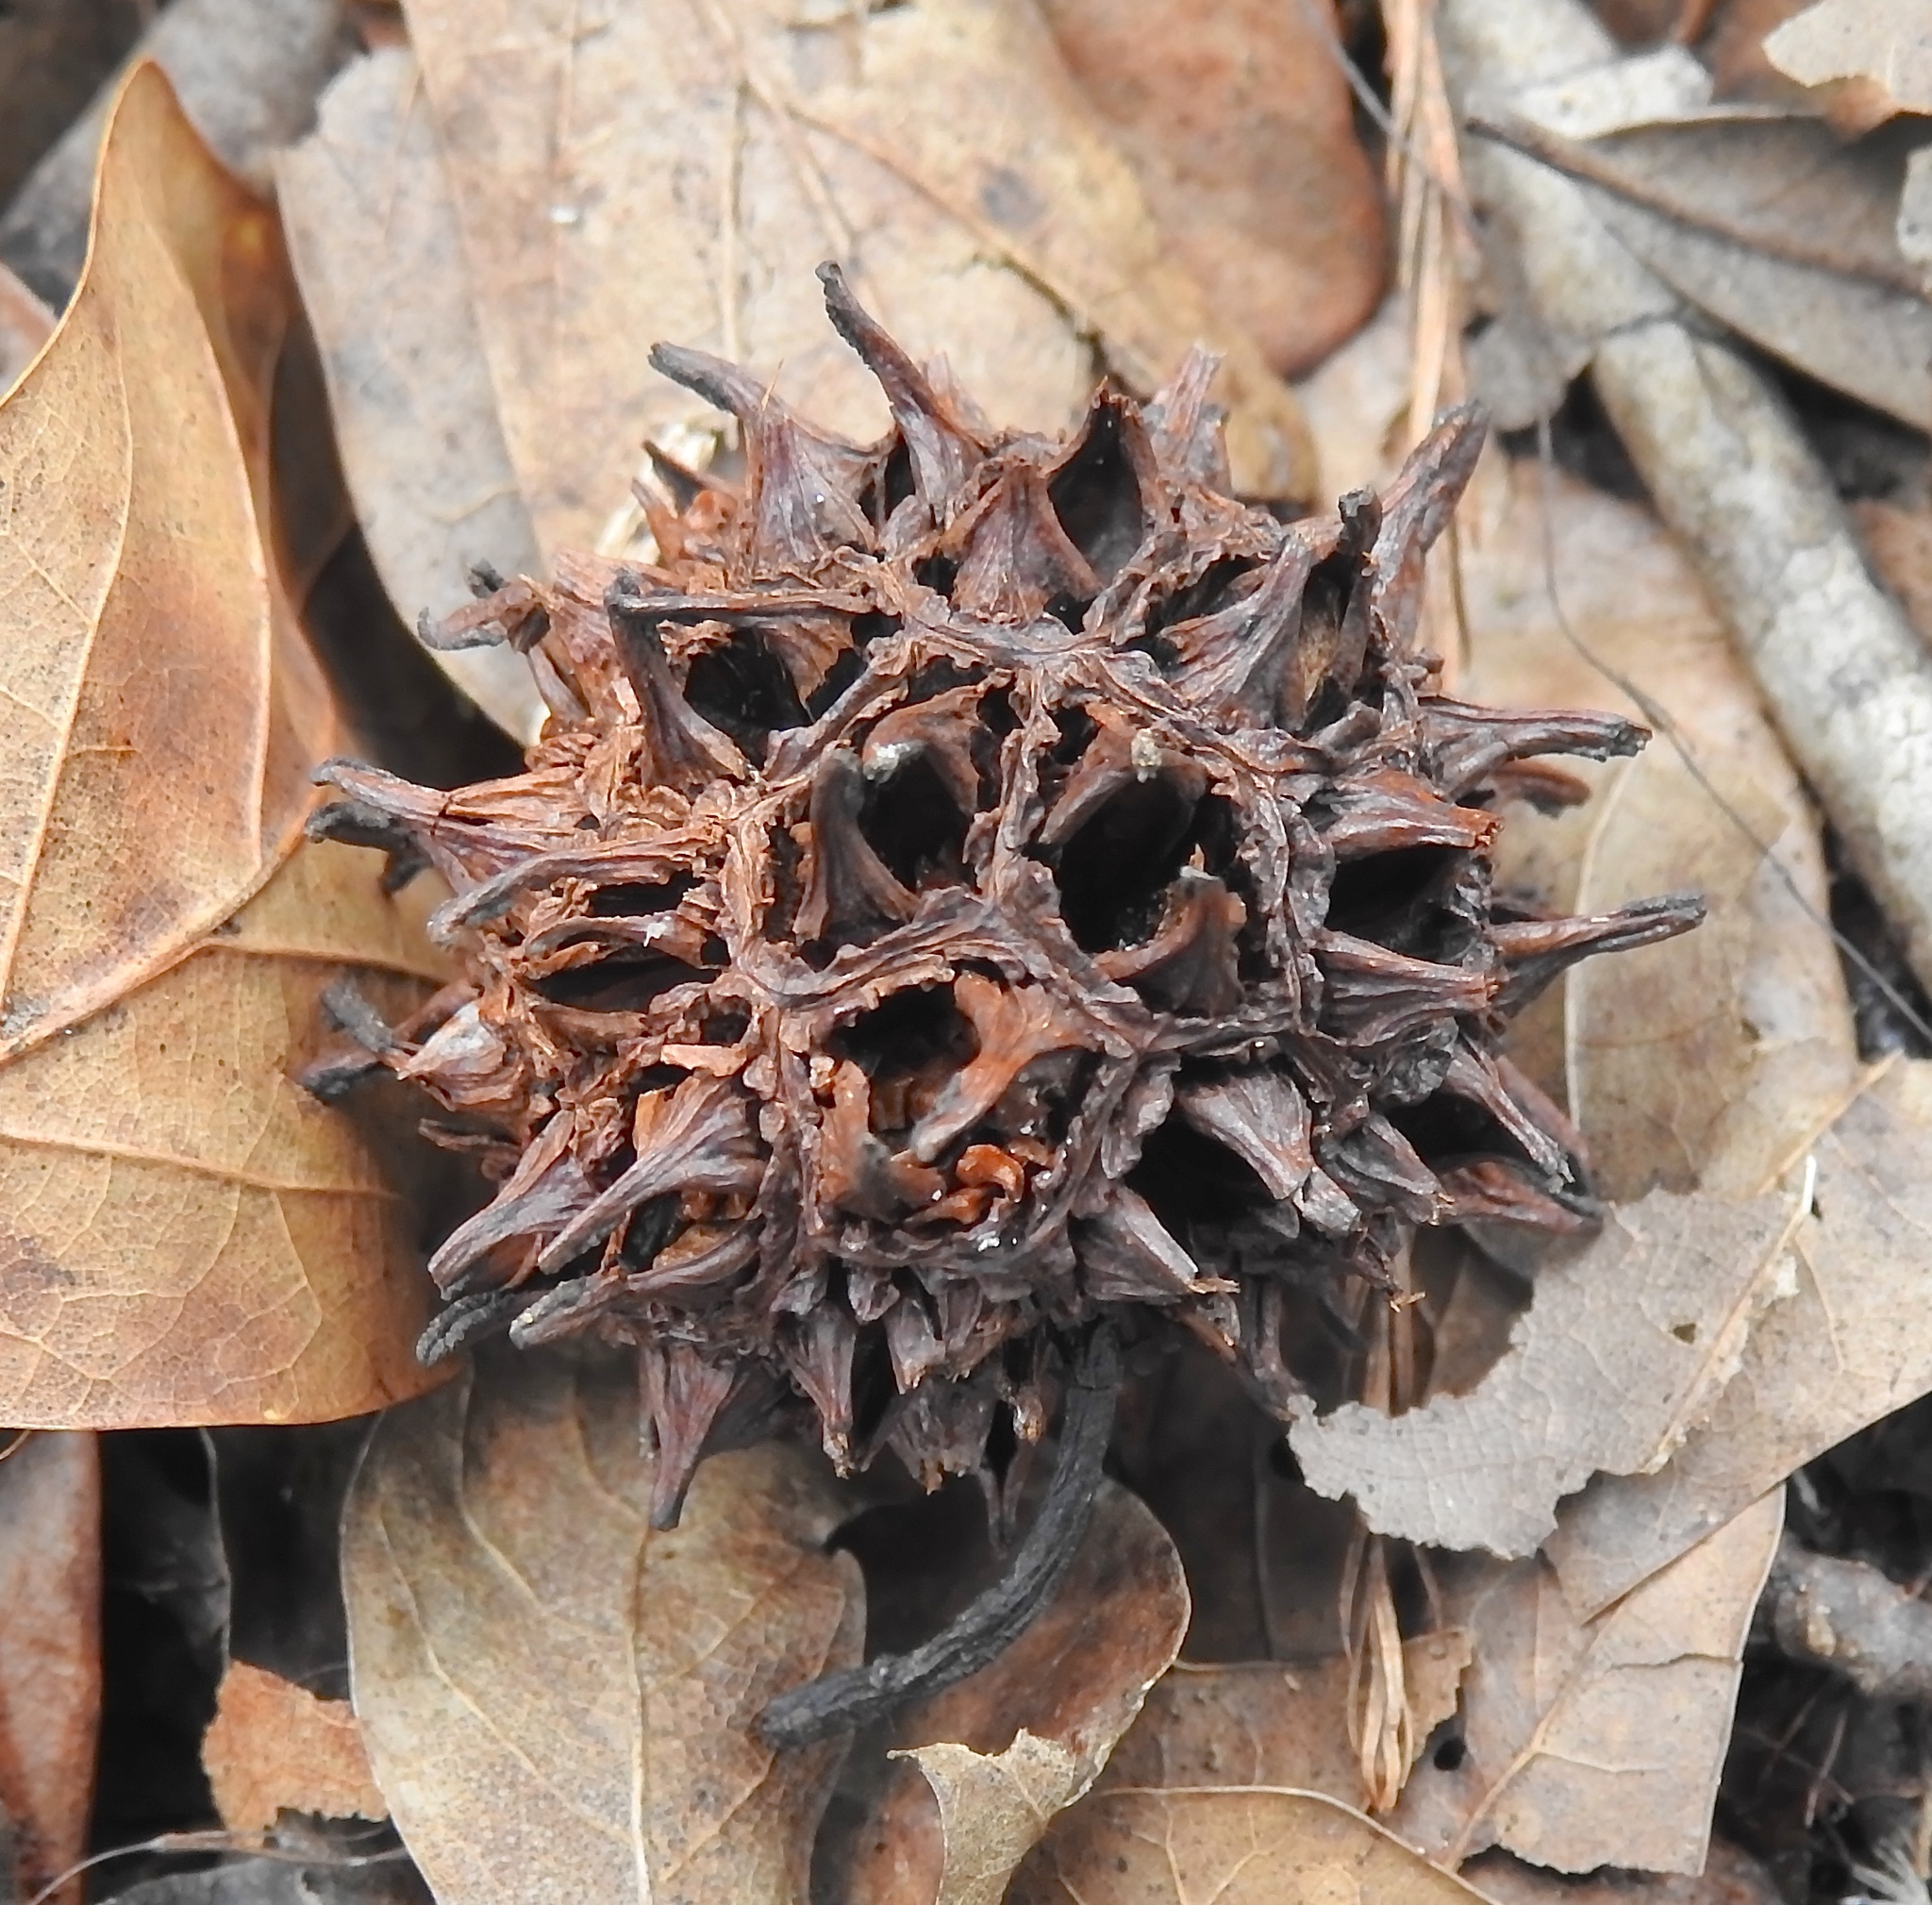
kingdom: Plantae
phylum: Tracheophyta
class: Magnoliopsida
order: Saxifragales
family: Altingiaceae
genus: Liquidambar
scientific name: Liquidambar styraciflua
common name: Sweet gum
